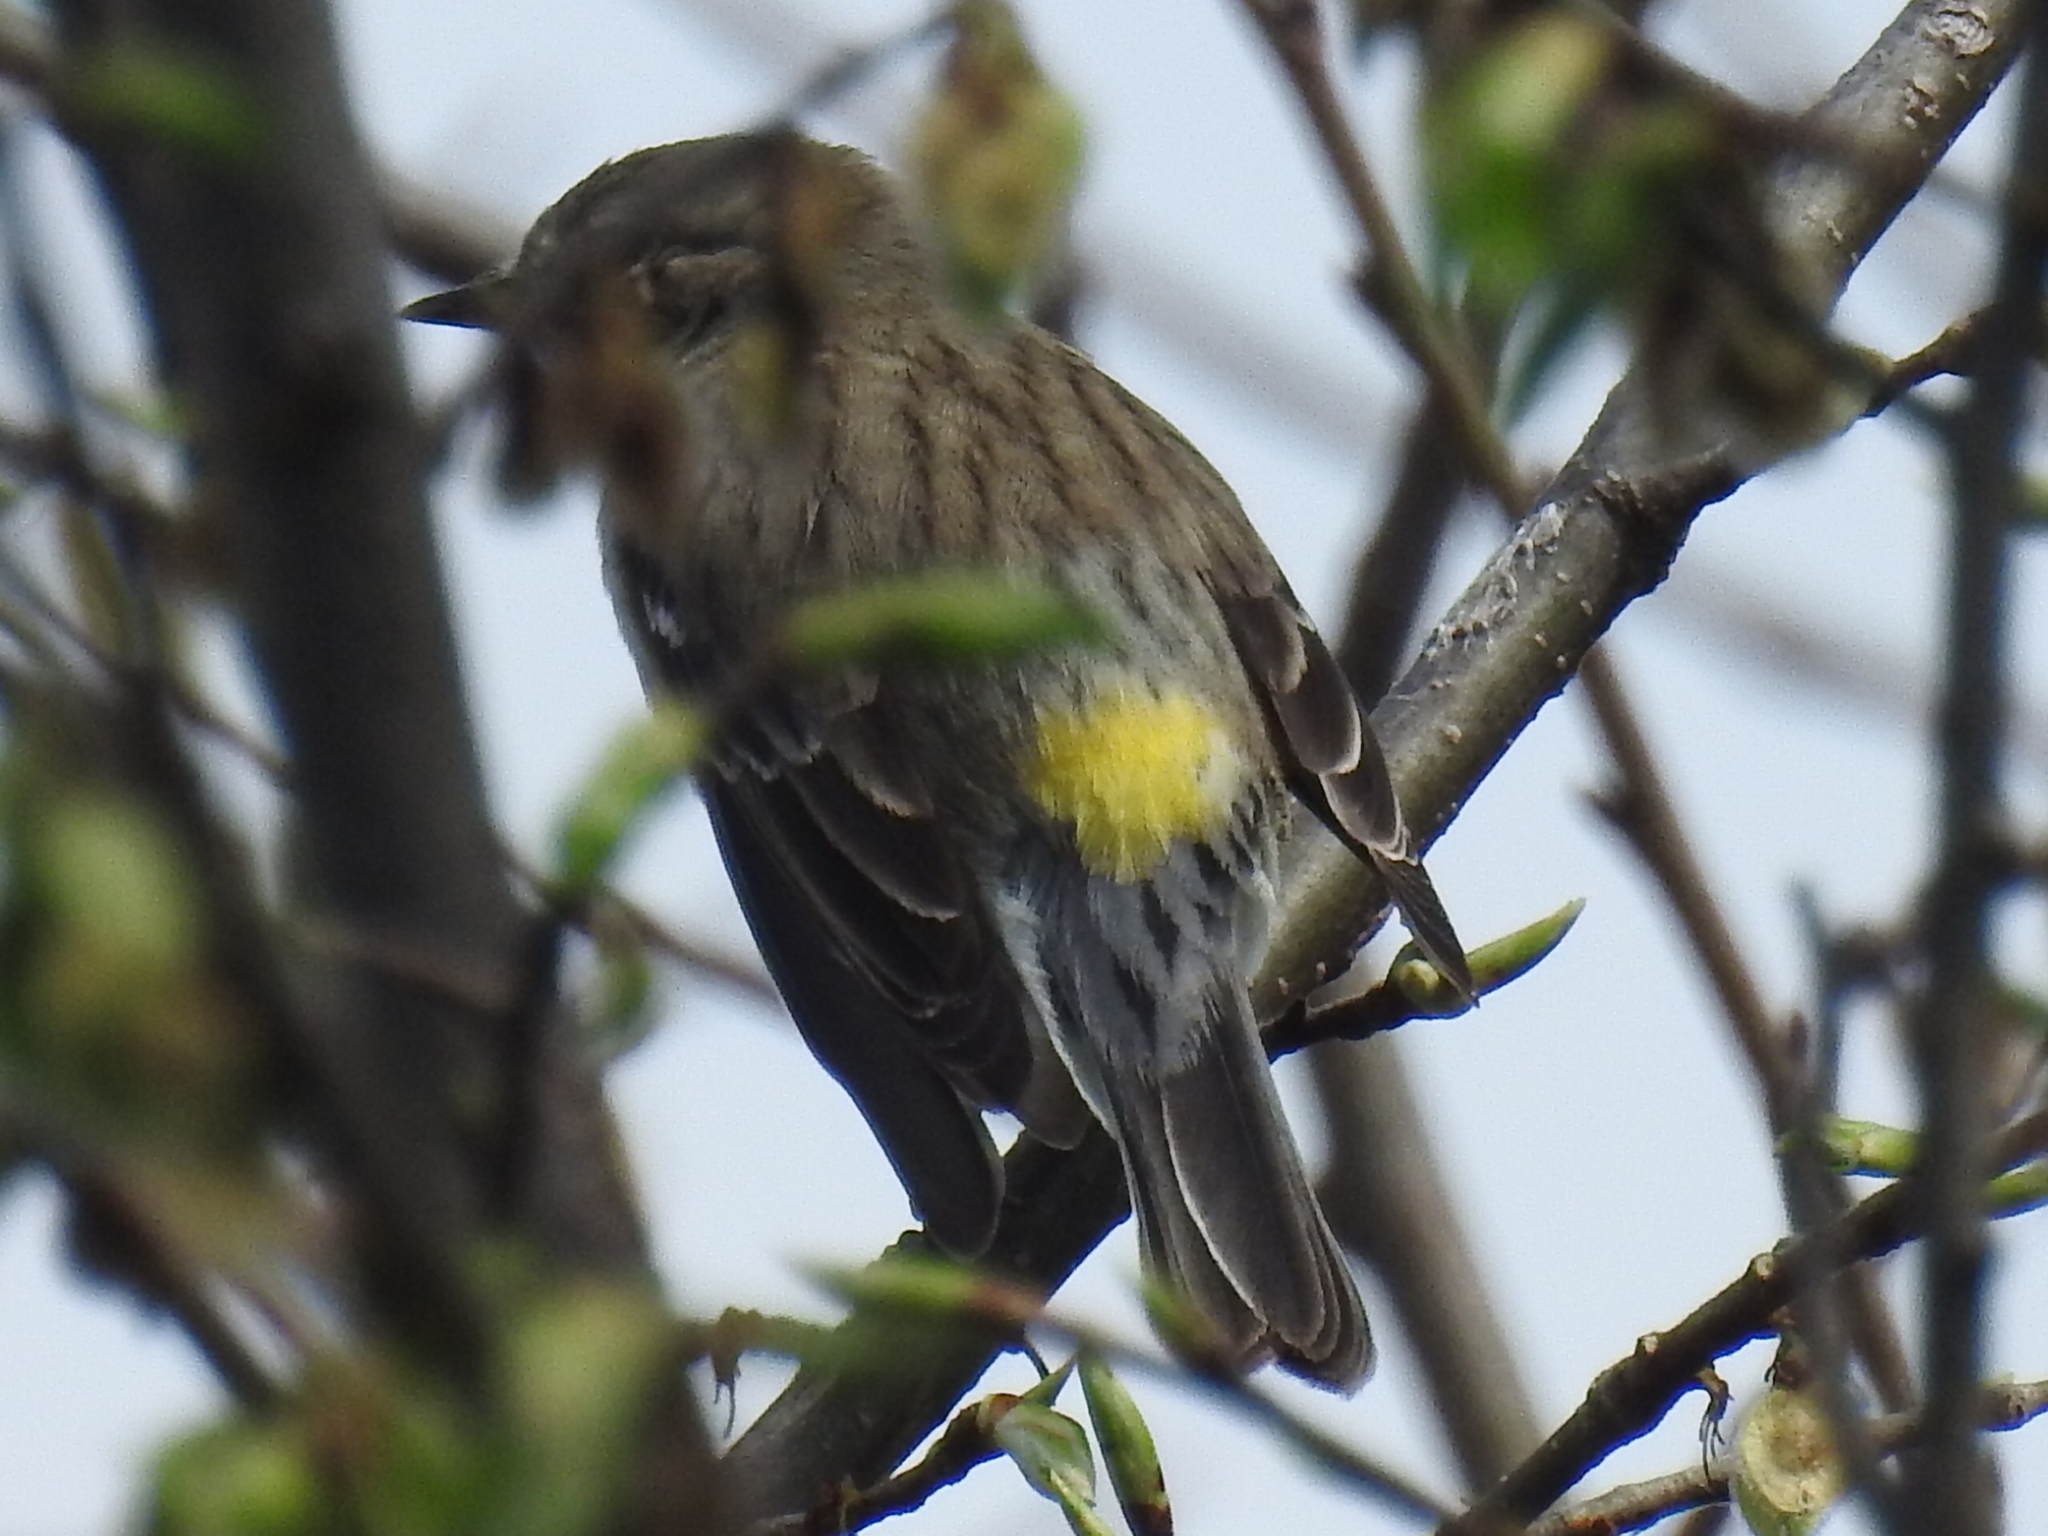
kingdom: Animalia
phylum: Chordata
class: Aves
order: Passeriformes
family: Parulidae
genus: Setophaga
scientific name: Setophaga coronata
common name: Myrtle warbler
